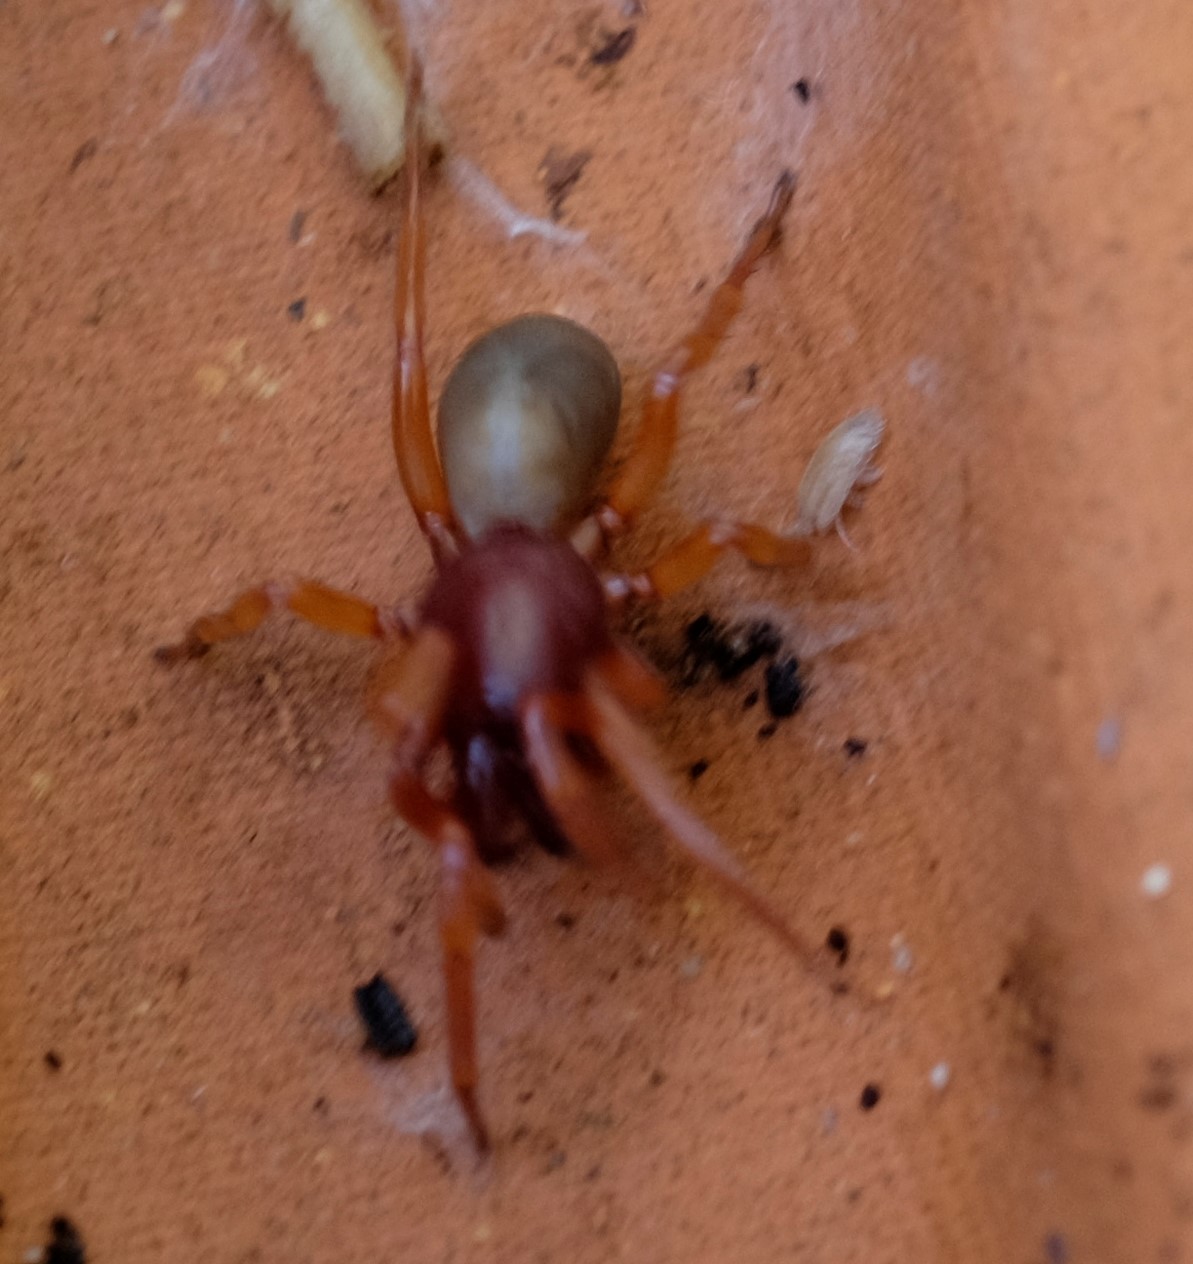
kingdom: Animalia
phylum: Arthropoda
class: Arachnida
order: Araneae
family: Dysderidae
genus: Dysdera
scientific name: Dysdera crocata
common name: Woodlouse spider
